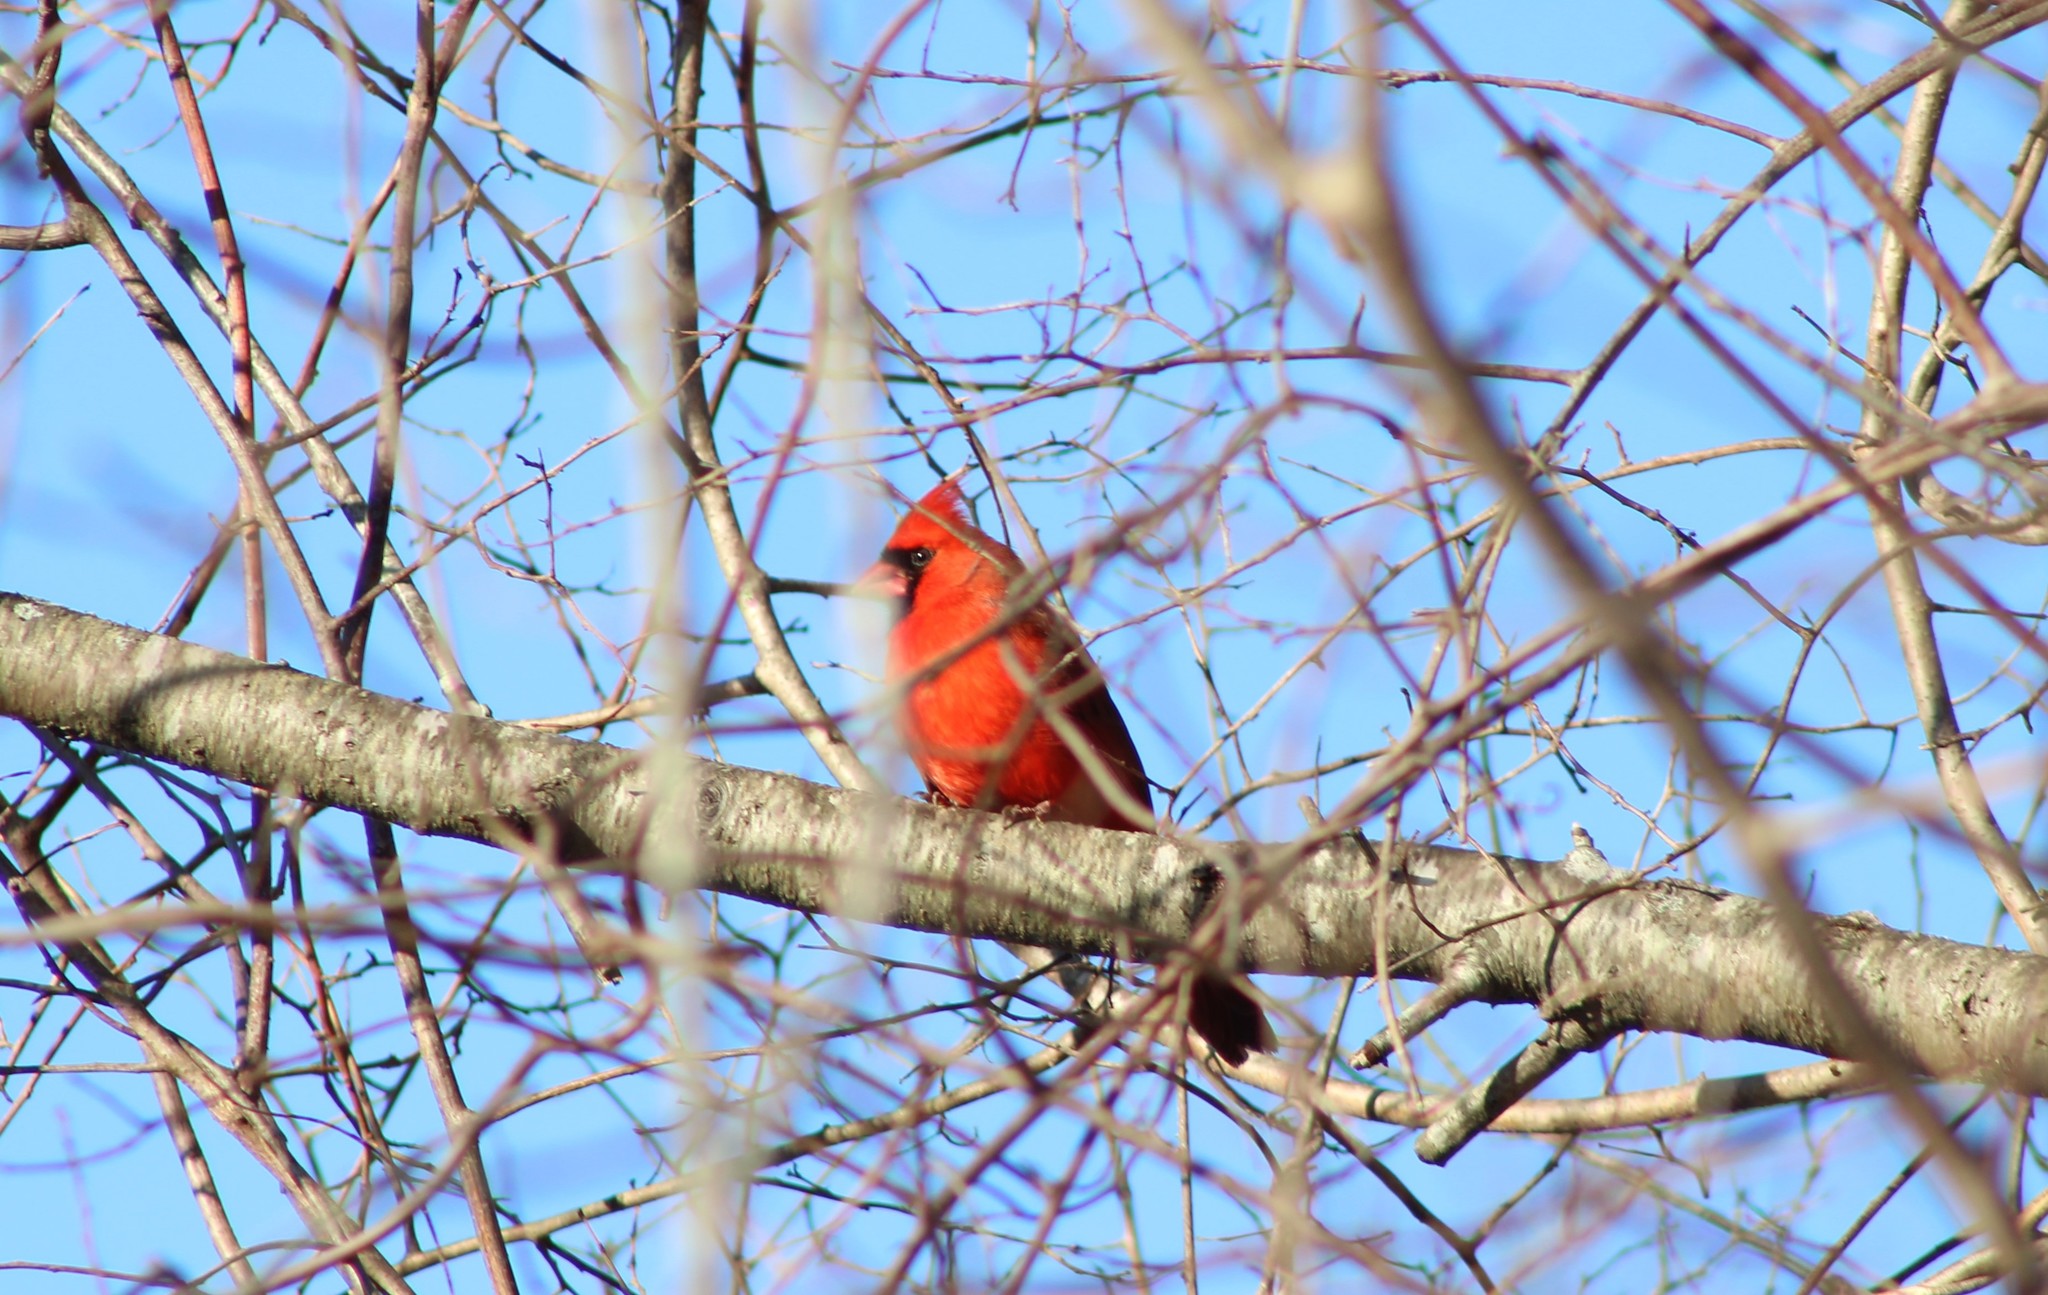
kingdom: Animalia
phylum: Chordata
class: Aves
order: Passeriformes
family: Cardinalidae
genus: Cardinalis
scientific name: Cardinalis cardinalis
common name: Northern cardinal
